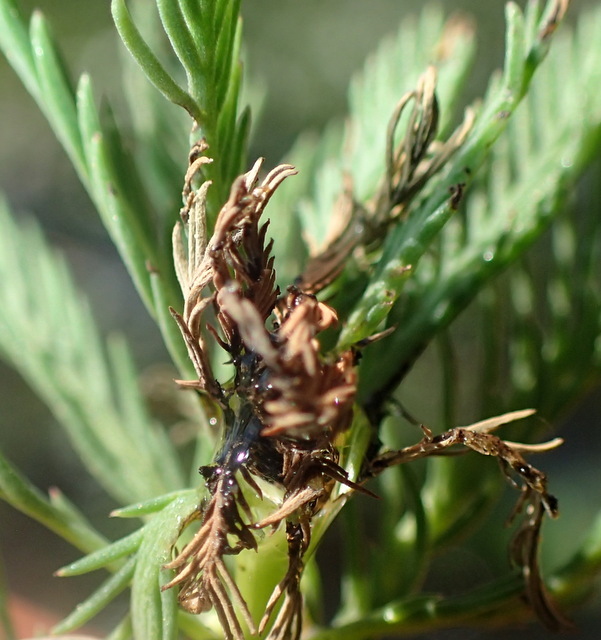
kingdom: Plantae
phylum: Tracheophyta
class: Magnoliopsida
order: Saxifragales
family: Haloragaceae
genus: Myriophyllum
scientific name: Myriophyllum aquaticum
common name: Parrot's feather
